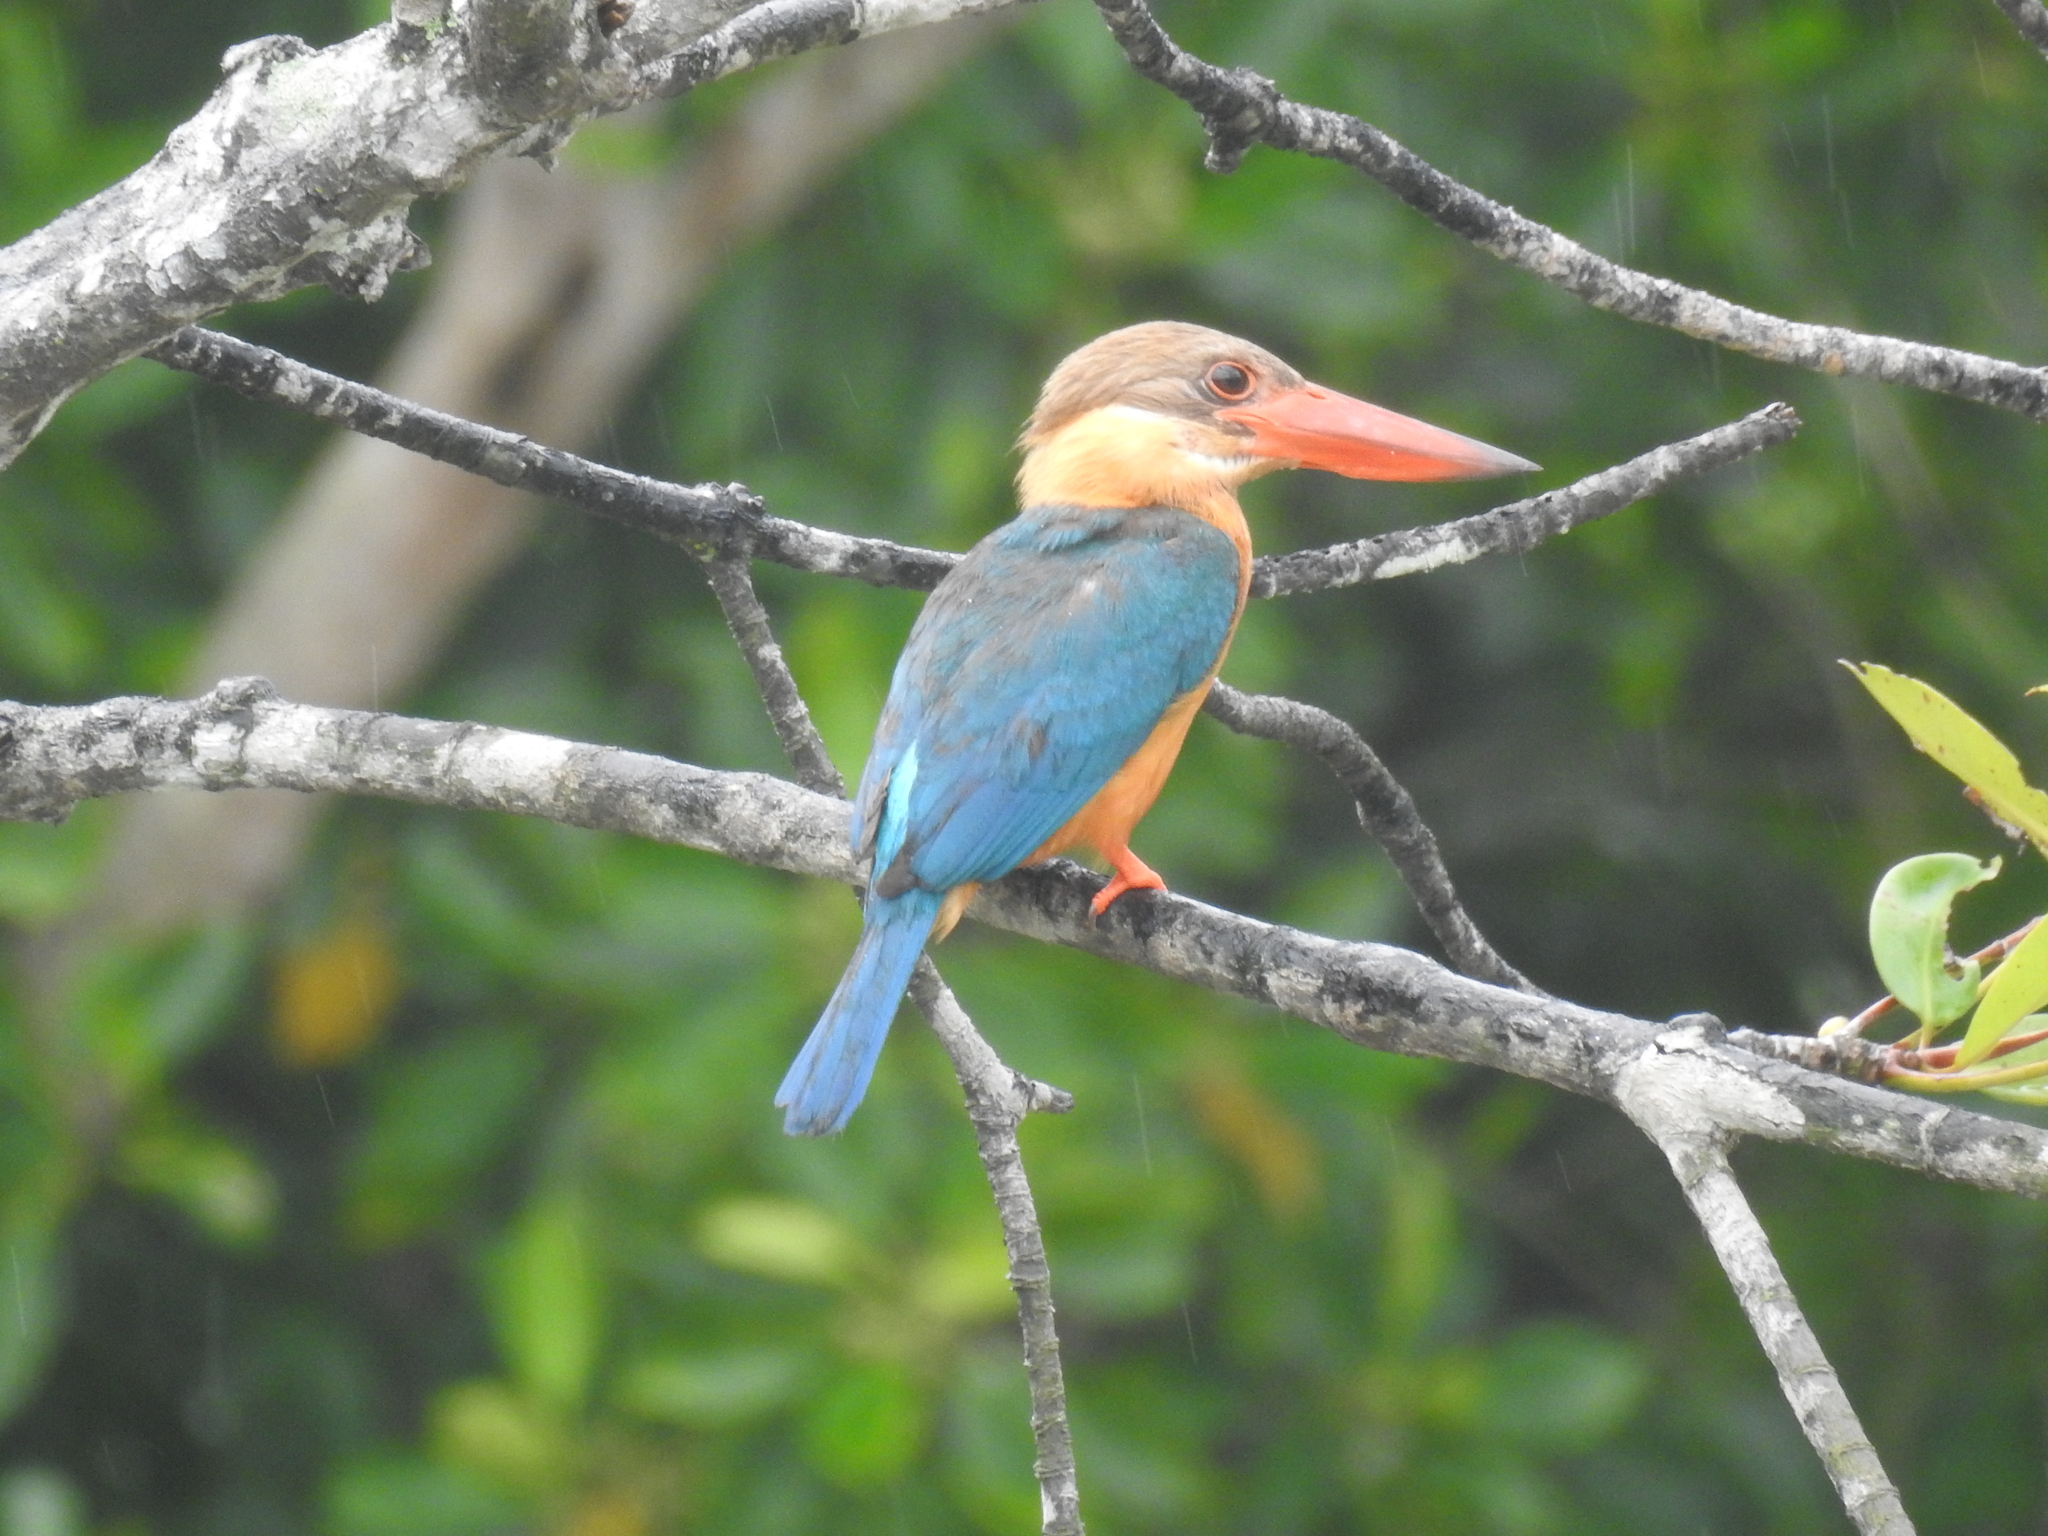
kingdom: Animalia
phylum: Chordata
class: Aves
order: Coraciiformes
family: Alcedinidae
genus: Pelargopsis
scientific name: Pelargopsis capensis
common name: Stork-billed kingfisher
